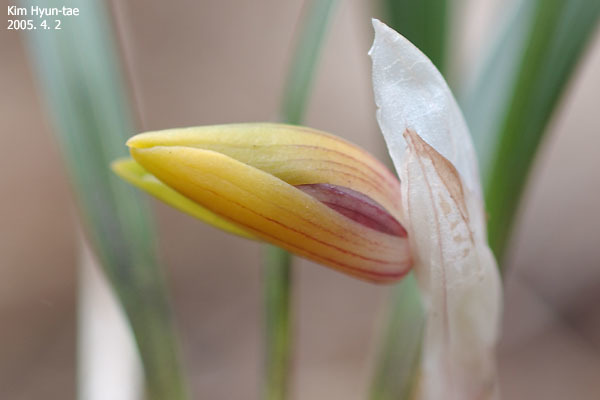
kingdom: Plantae
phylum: Tracheophyta
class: Liliopsida
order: Asparagales
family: Orchidaceae
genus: Cymbidium
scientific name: Cymbidium goeringii
